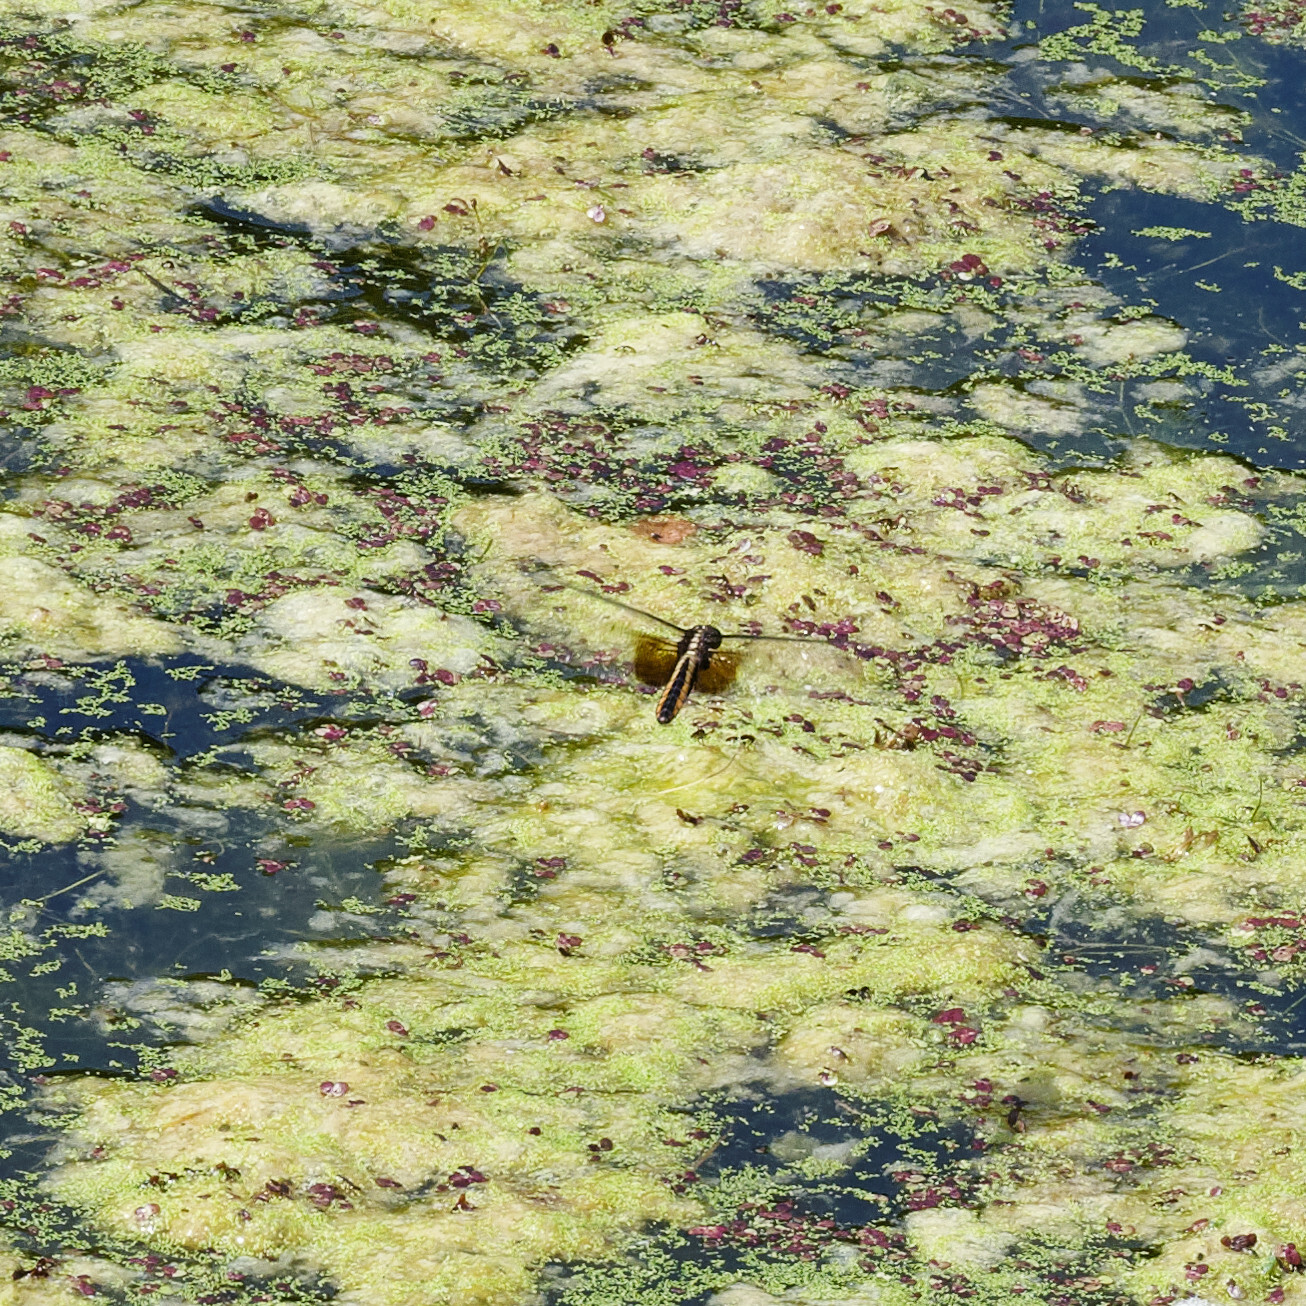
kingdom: Animalia
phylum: Arthropoda
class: Insecta
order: Odonata
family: Libellulidae
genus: Libellula
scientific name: Libellula luctuosa
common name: Widow skimmer
